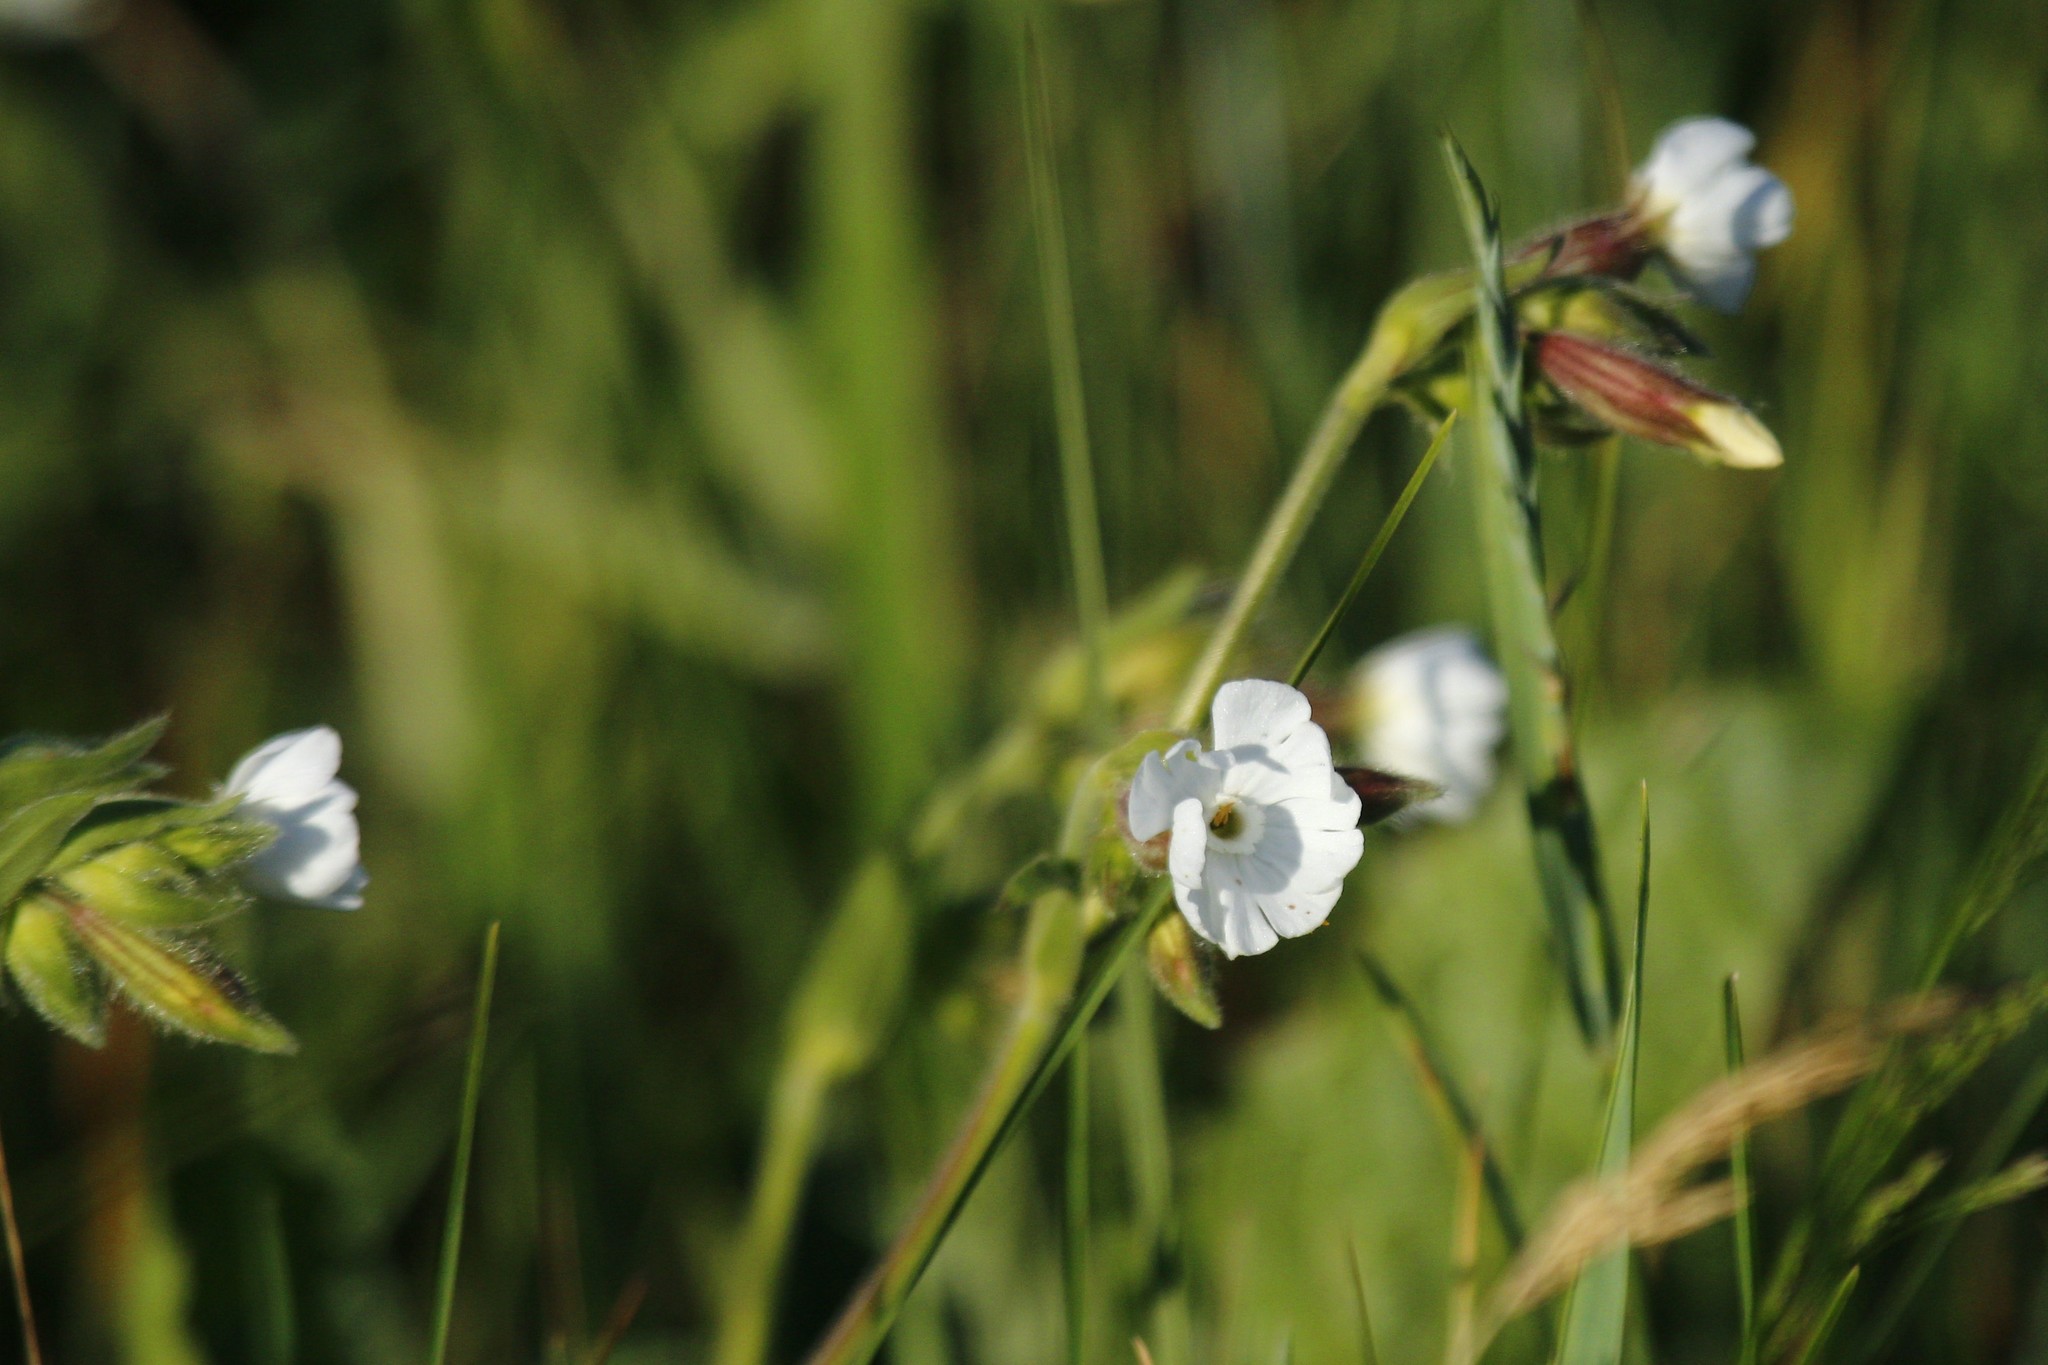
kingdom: Plantae
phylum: Tracheophyta
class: Magnoliopsida
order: Caryophyllales
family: Caryophyllaceae
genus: Silene
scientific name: Silene latifolia
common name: White campion
